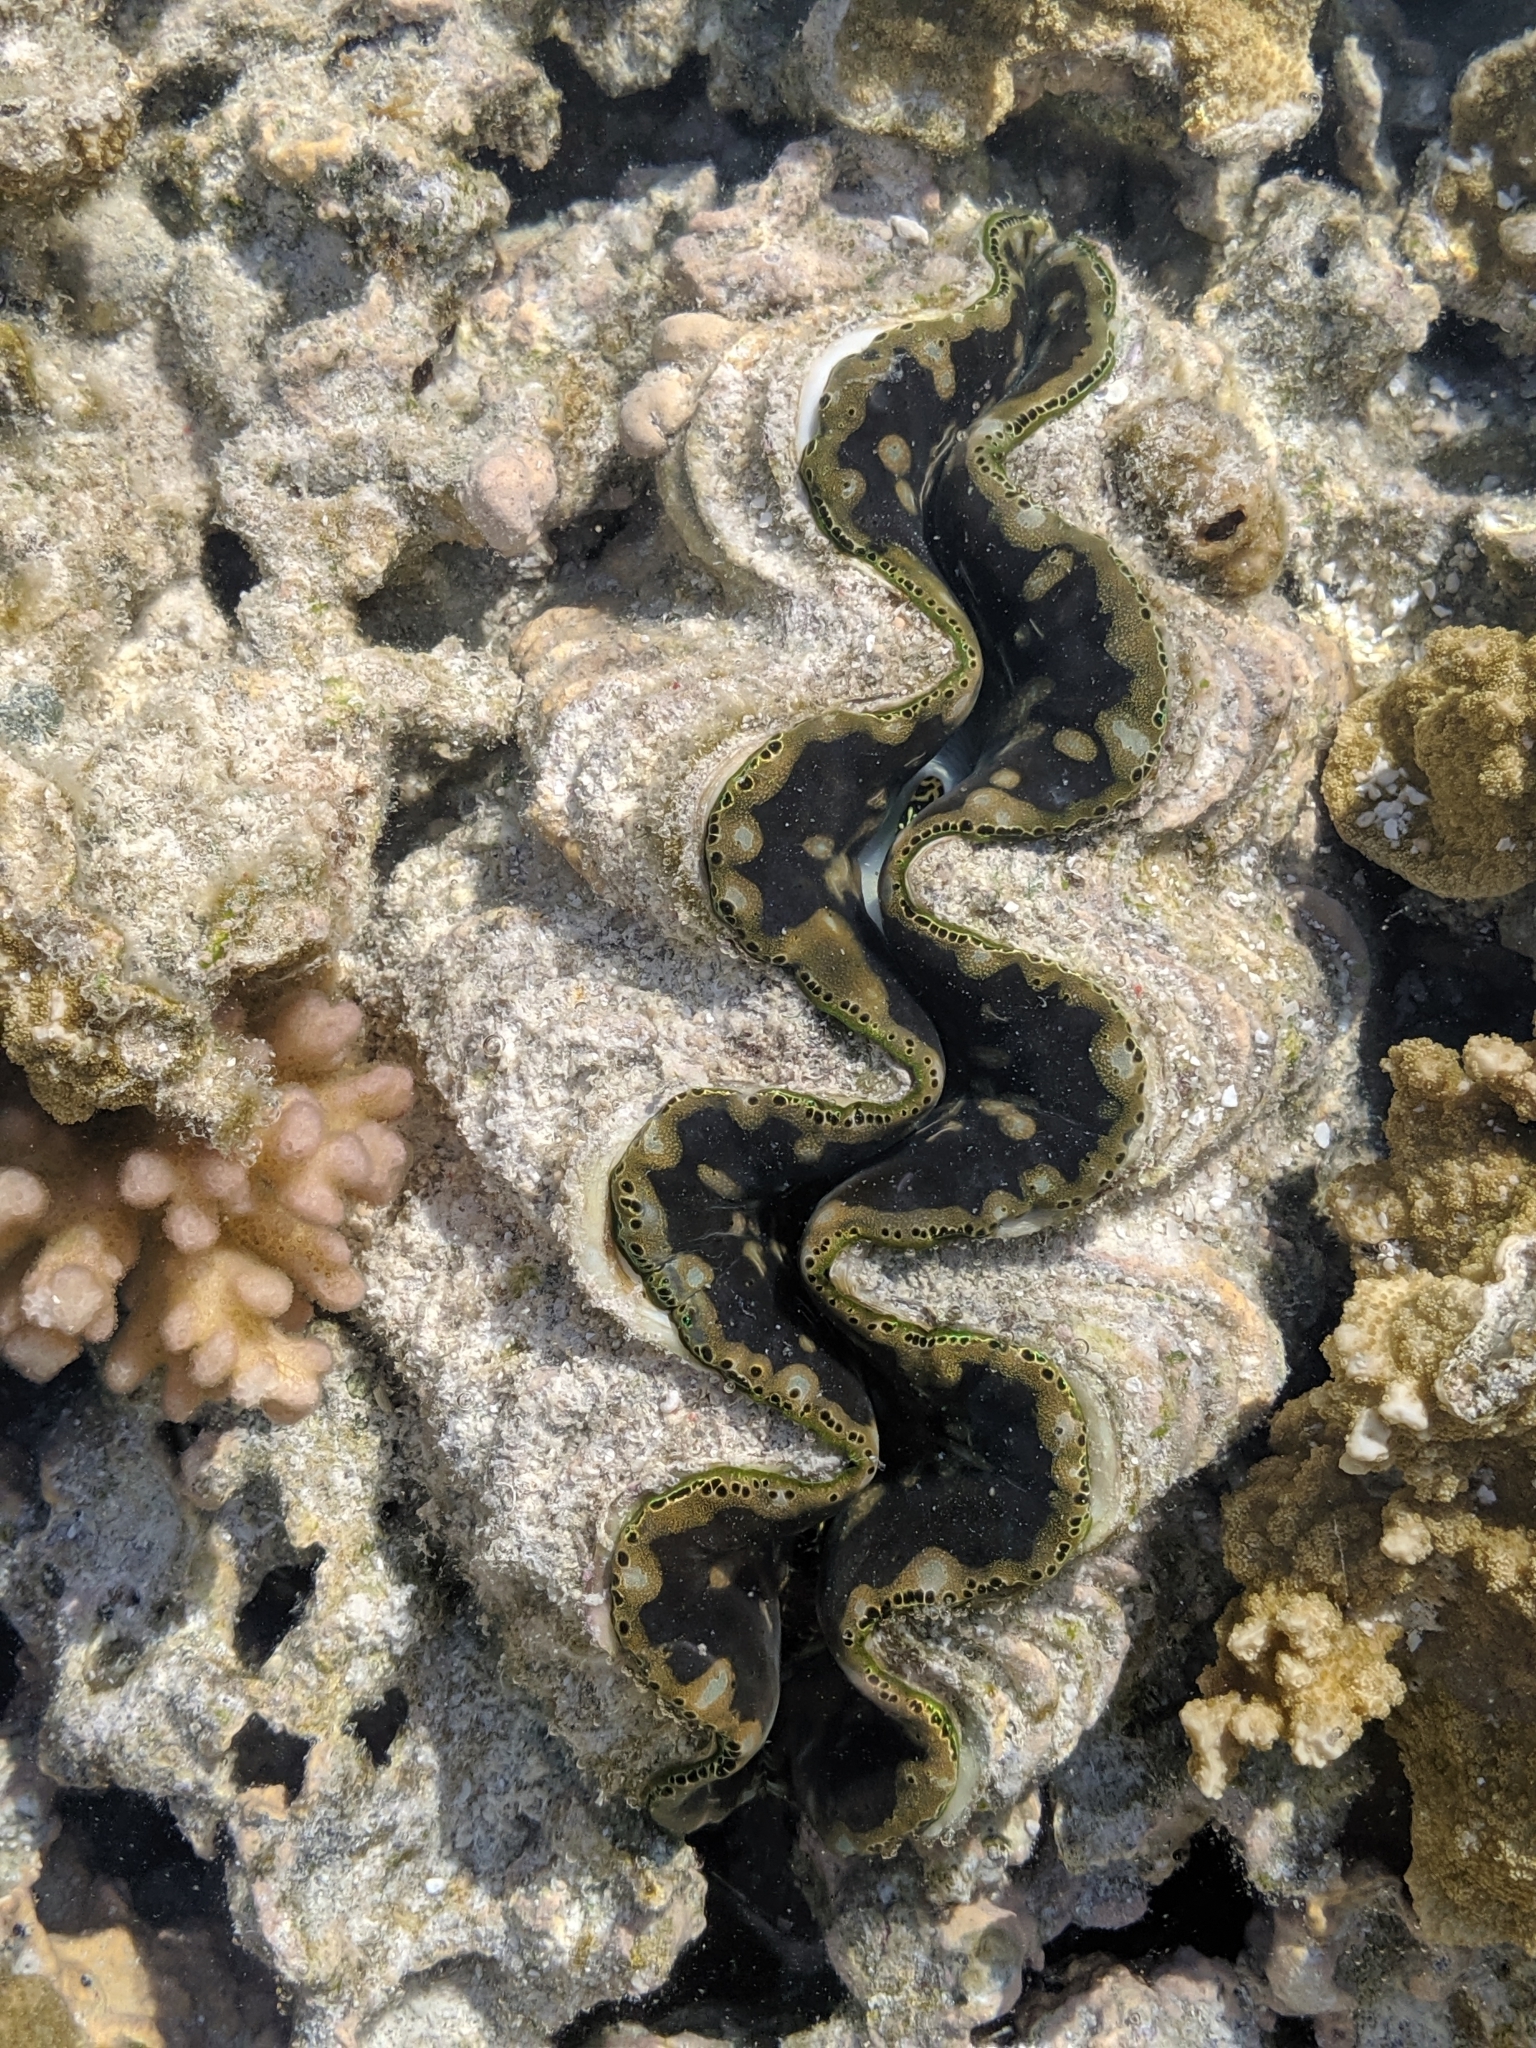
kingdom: Animalia
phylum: Mollusca
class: Bivalvia
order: Cardiida
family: Cardiidae
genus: Tridacna
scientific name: Tridacna maxima
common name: Small giant clam
